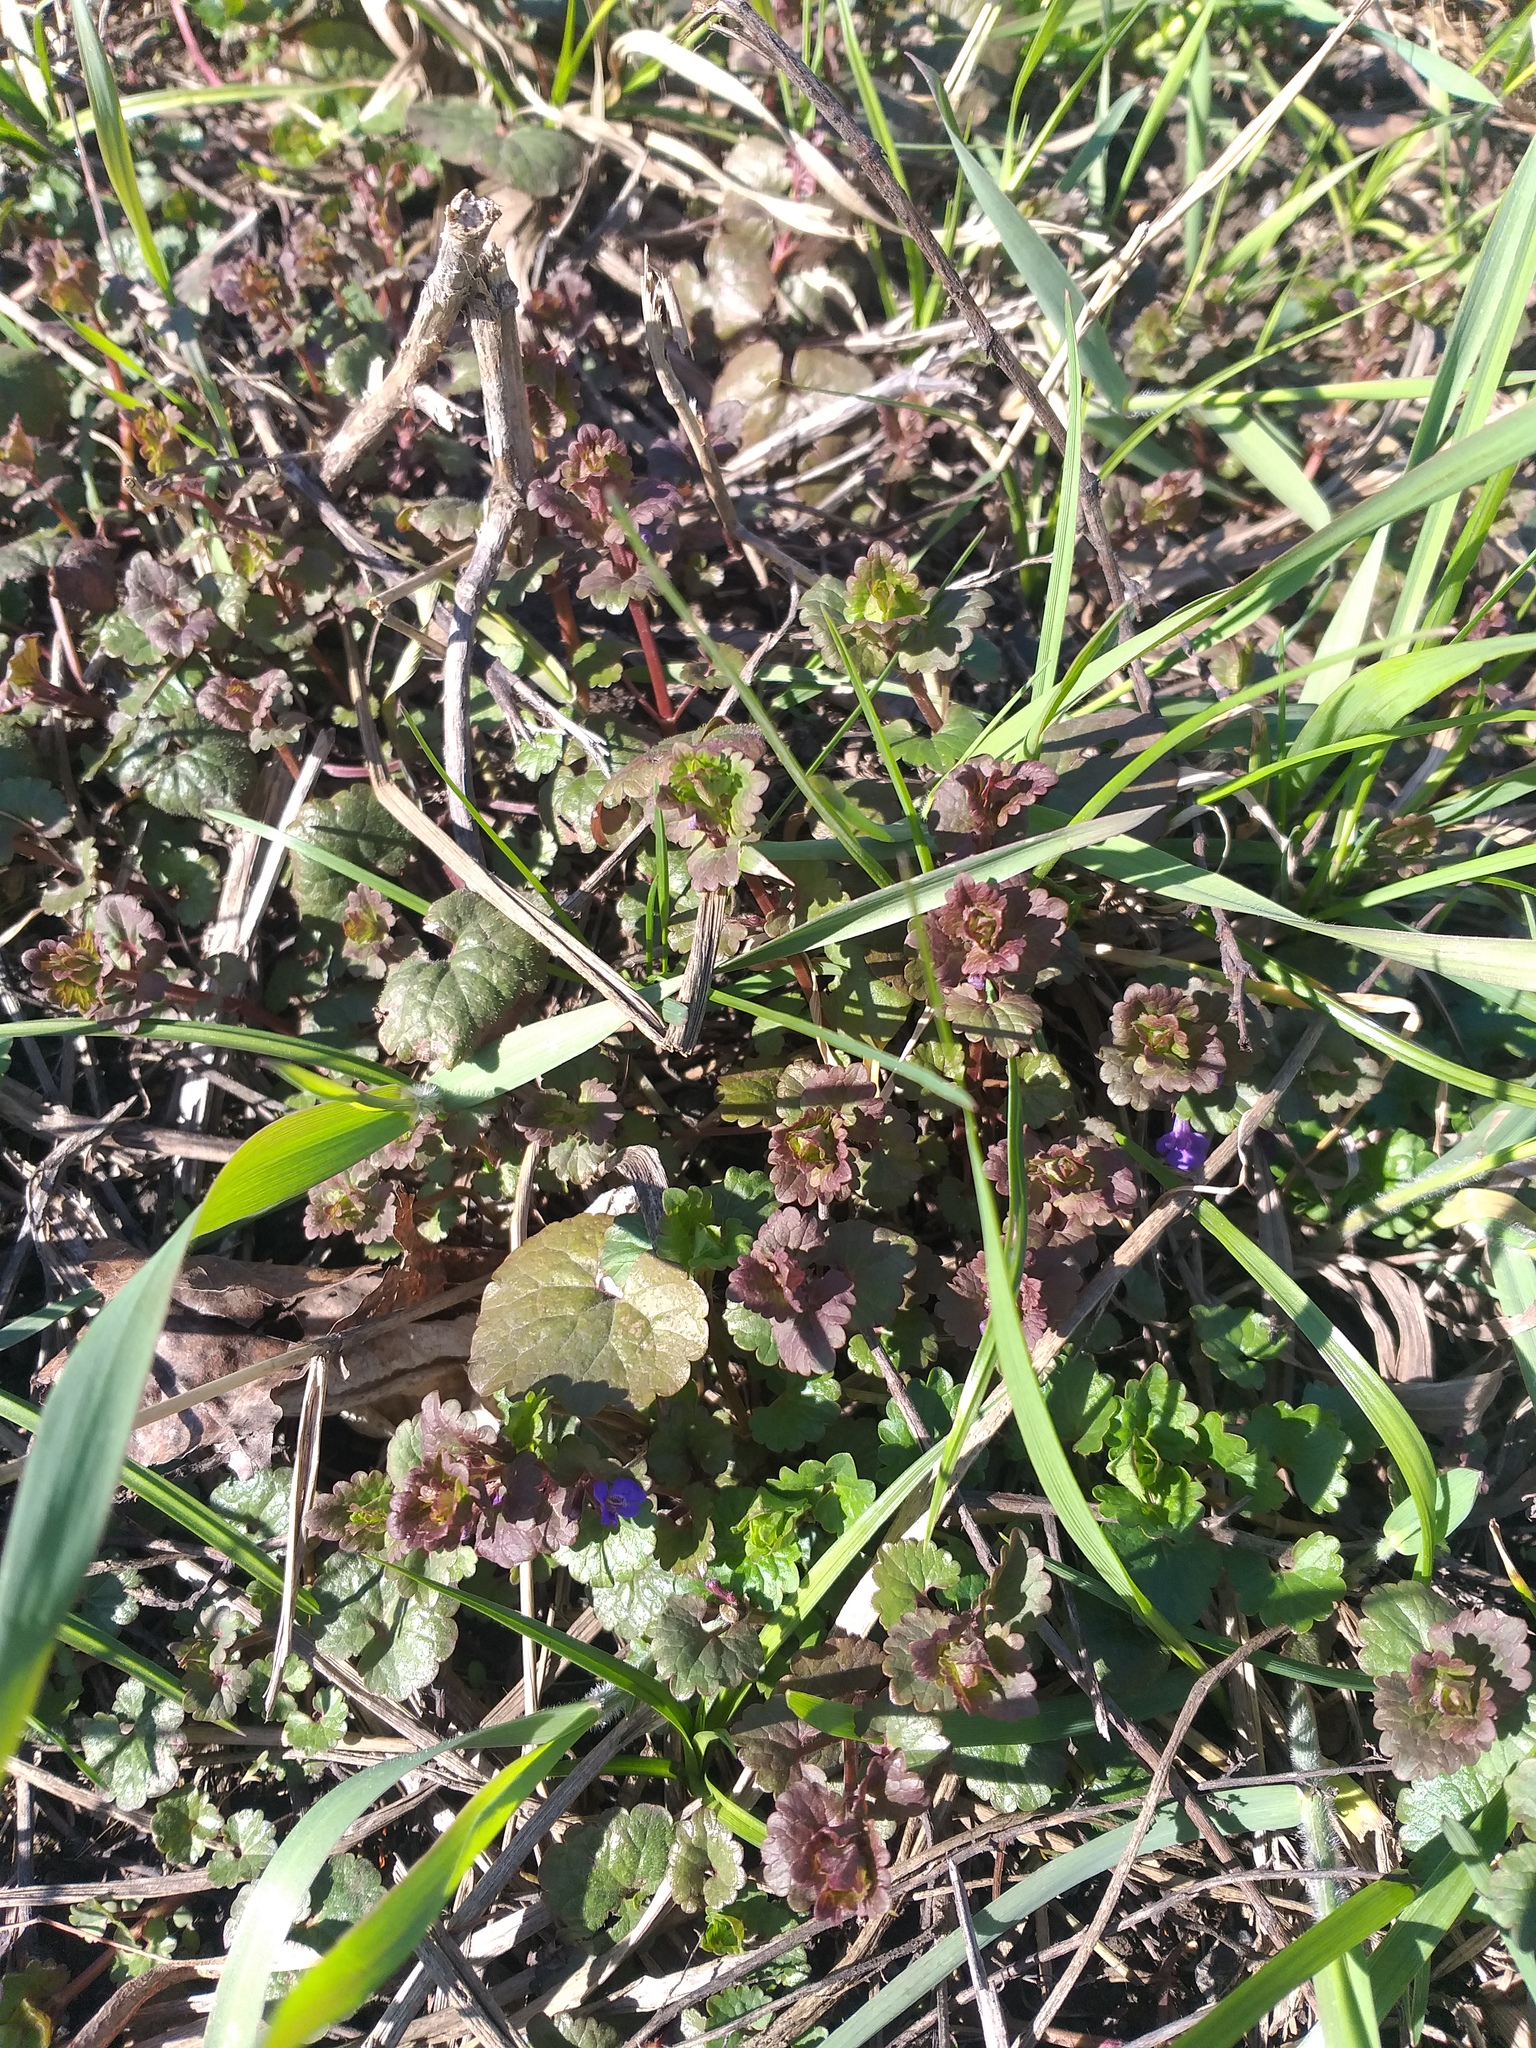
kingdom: Plantae
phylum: Tracheophyta
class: Magnoliopsida
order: Lamiales
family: Lamiaceae
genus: Glechoma
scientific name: Glechoma hederacea
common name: Ground ivy
